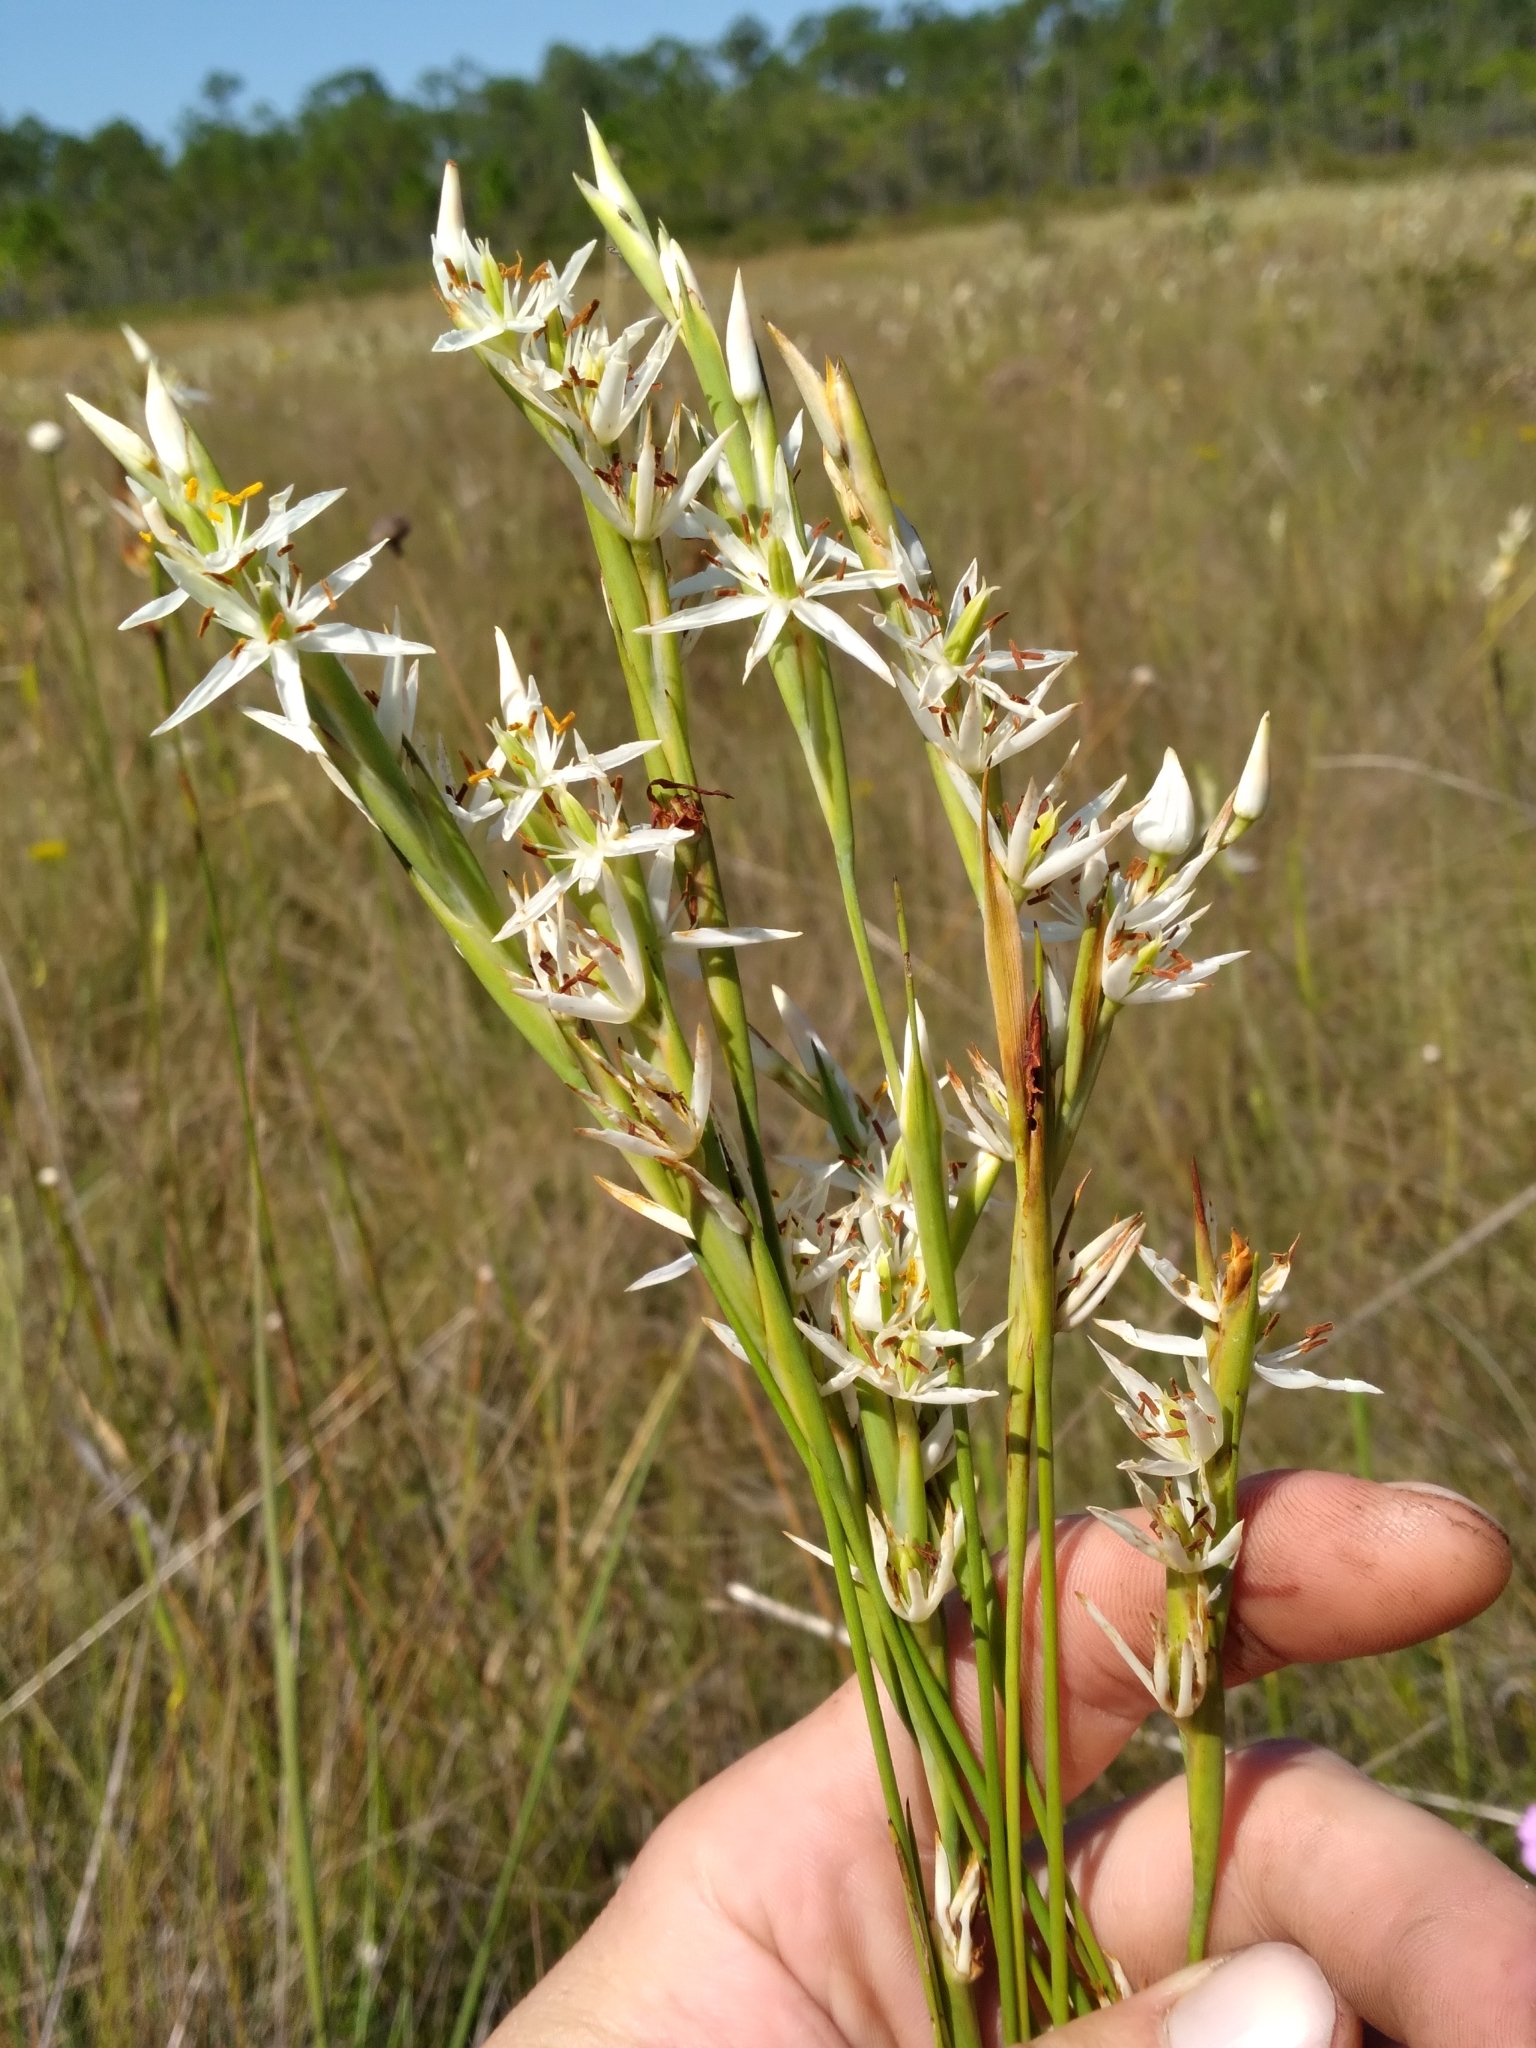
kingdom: Plantae
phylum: Tracheophyta
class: Liliopsida
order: Alismatales
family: Tofieldiaceae
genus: Pleea
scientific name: Pleea tenuifolia
